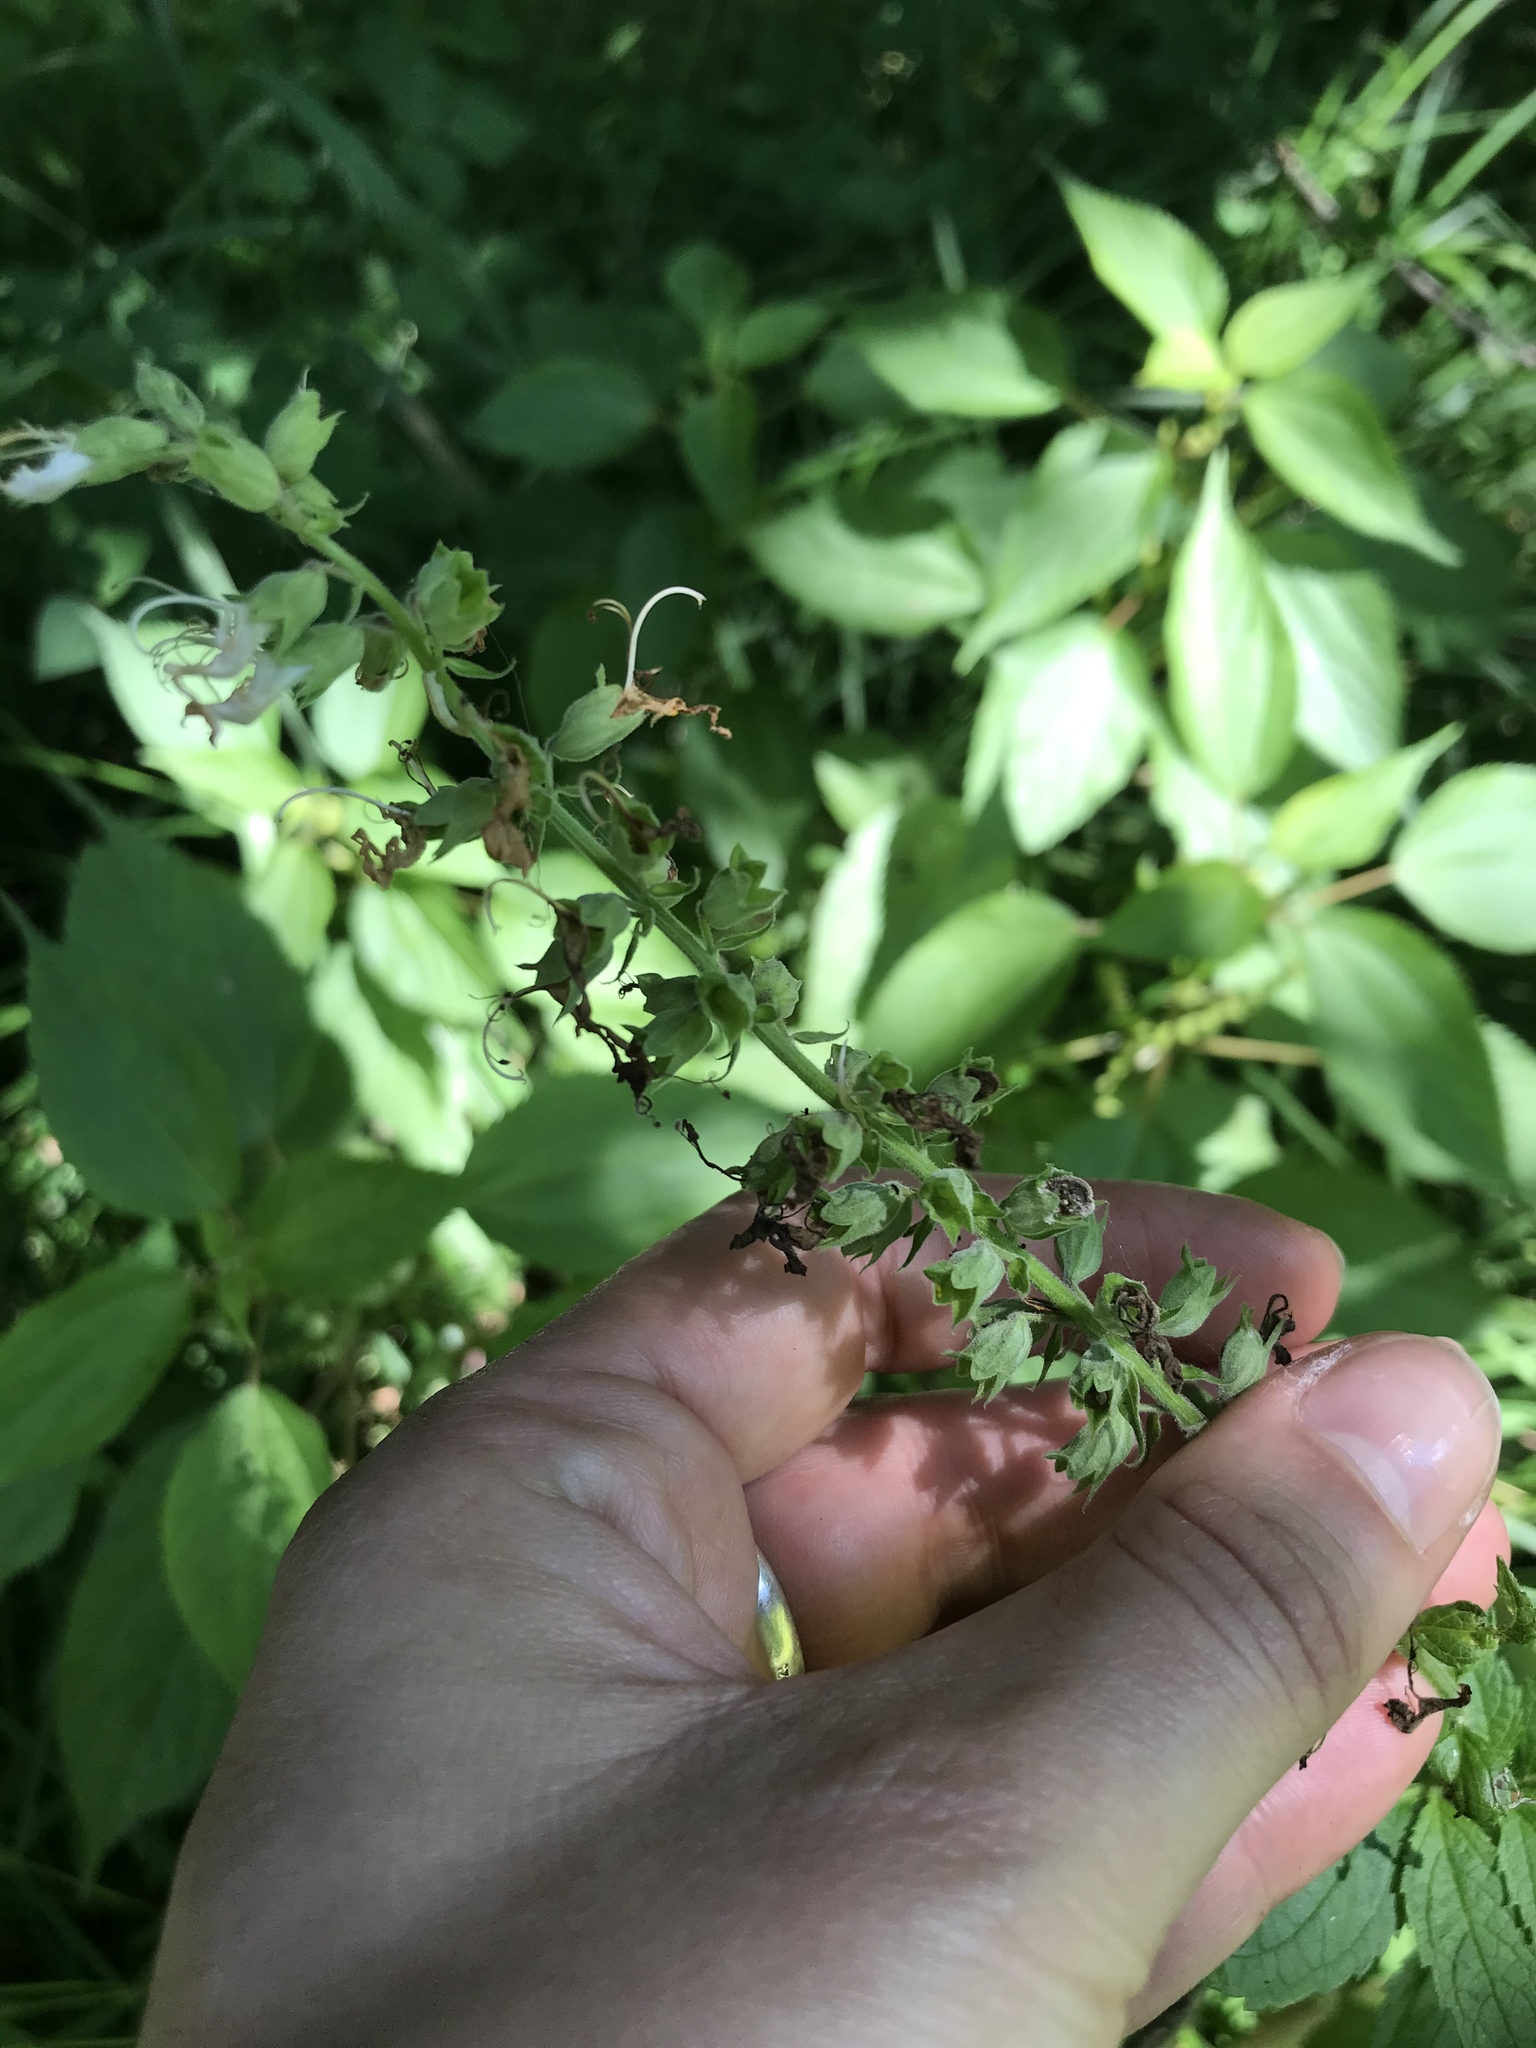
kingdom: Plantae
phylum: Tracheophyta
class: Magnoliopsida
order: Lamiales
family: Lamiaceae
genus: Teucrium
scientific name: Teucrium canadense
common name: American germander
